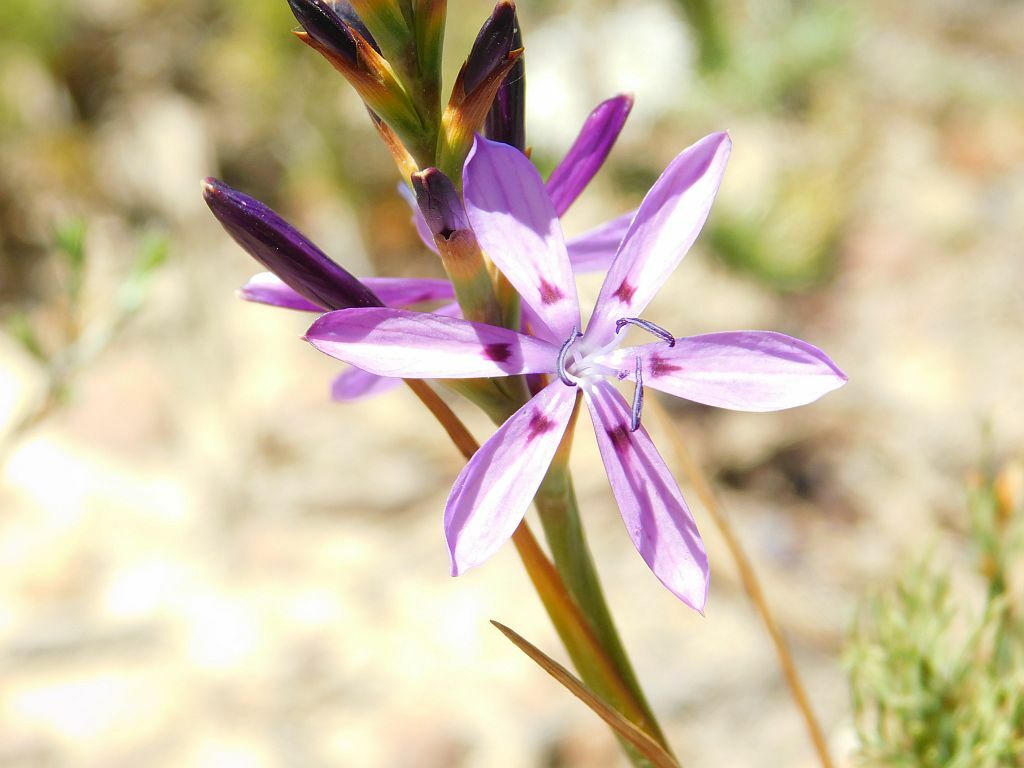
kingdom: Plantae
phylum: Tracheophyta
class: Liliopsida
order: Asparagales
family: Iridaceae
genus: Thereianthus
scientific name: Thereianthus bracteolatus
